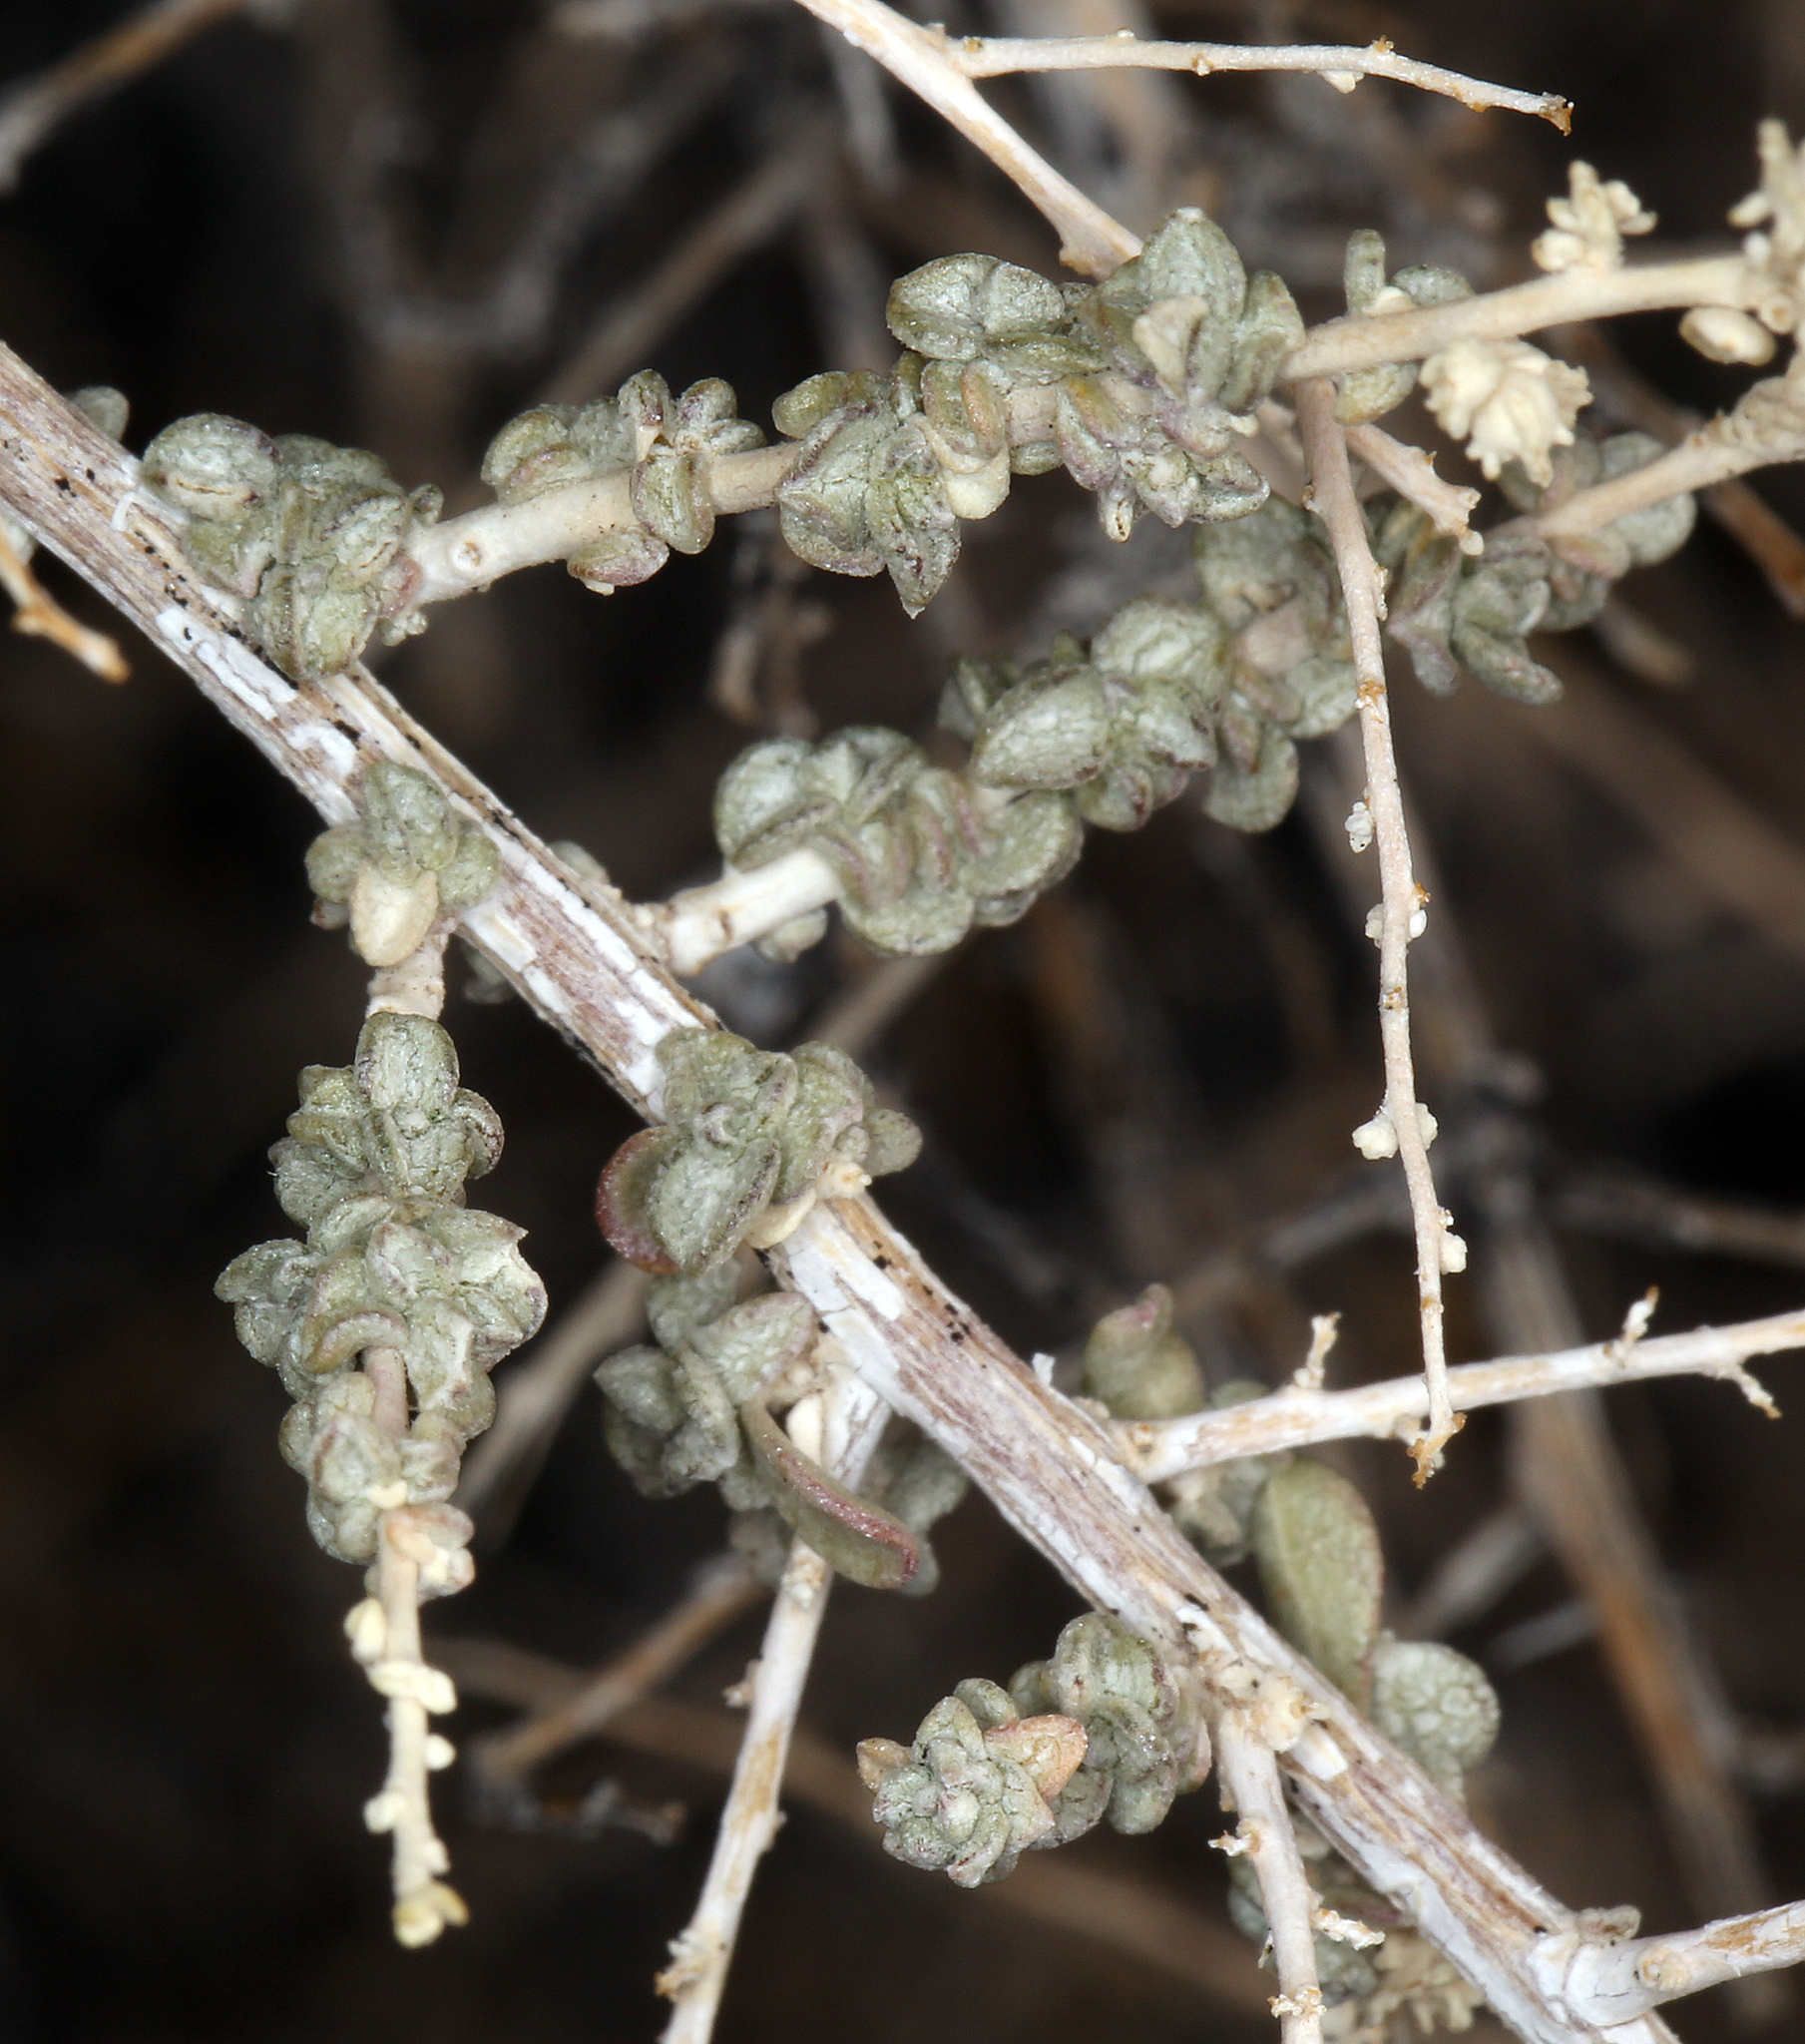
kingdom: Plantae
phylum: Tracheophyta
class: Magnoliopsida
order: Caryophyllales
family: Amaranthaceae
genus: Atriplex
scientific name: Atriplex polycarpa
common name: Desert saltbush
